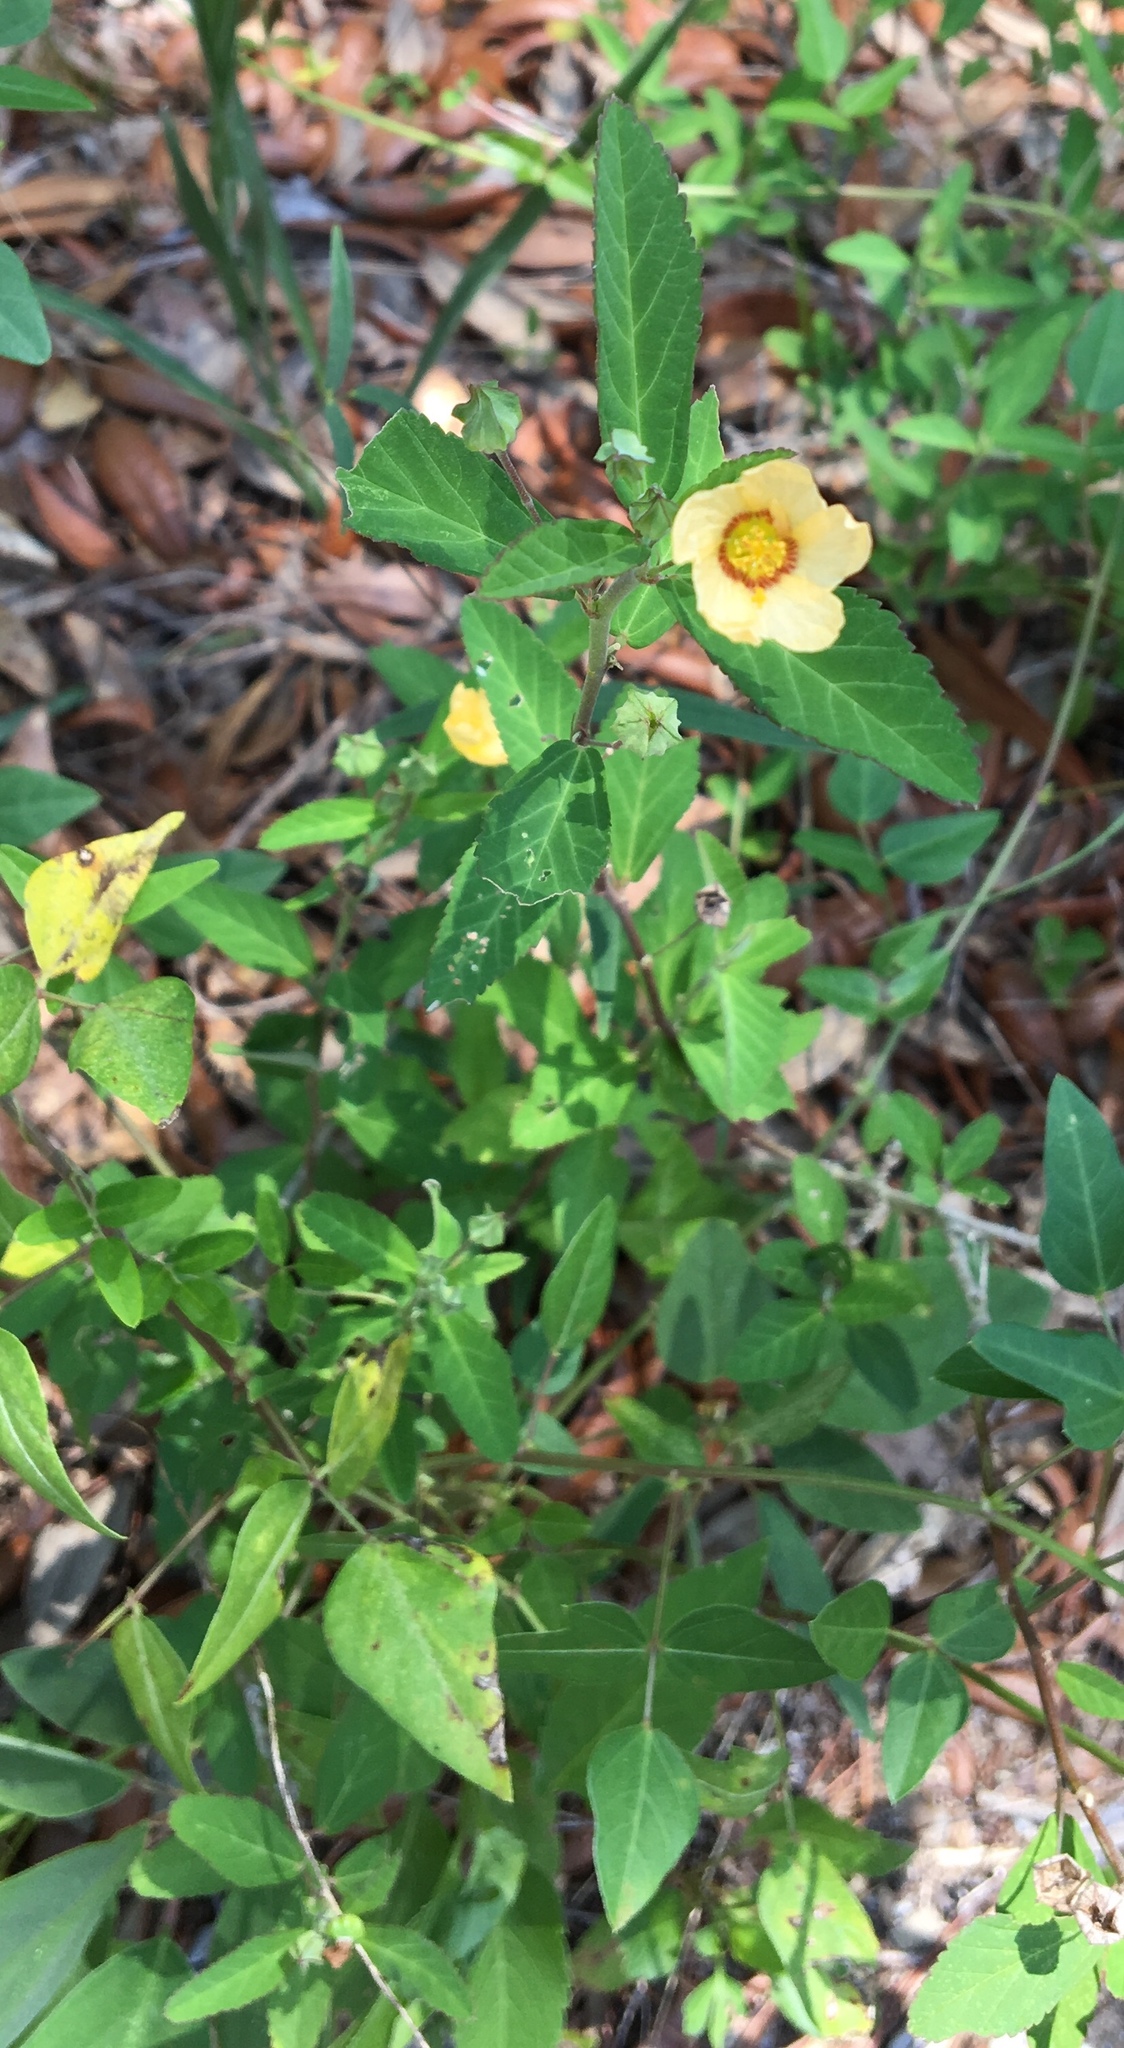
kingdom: Plantae
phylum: Tracheophyta
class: Magnoliopsida
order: Malvales
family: Malvaceae
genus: Sida
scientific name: Sida rhombifolia
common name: Queensland-hemp
